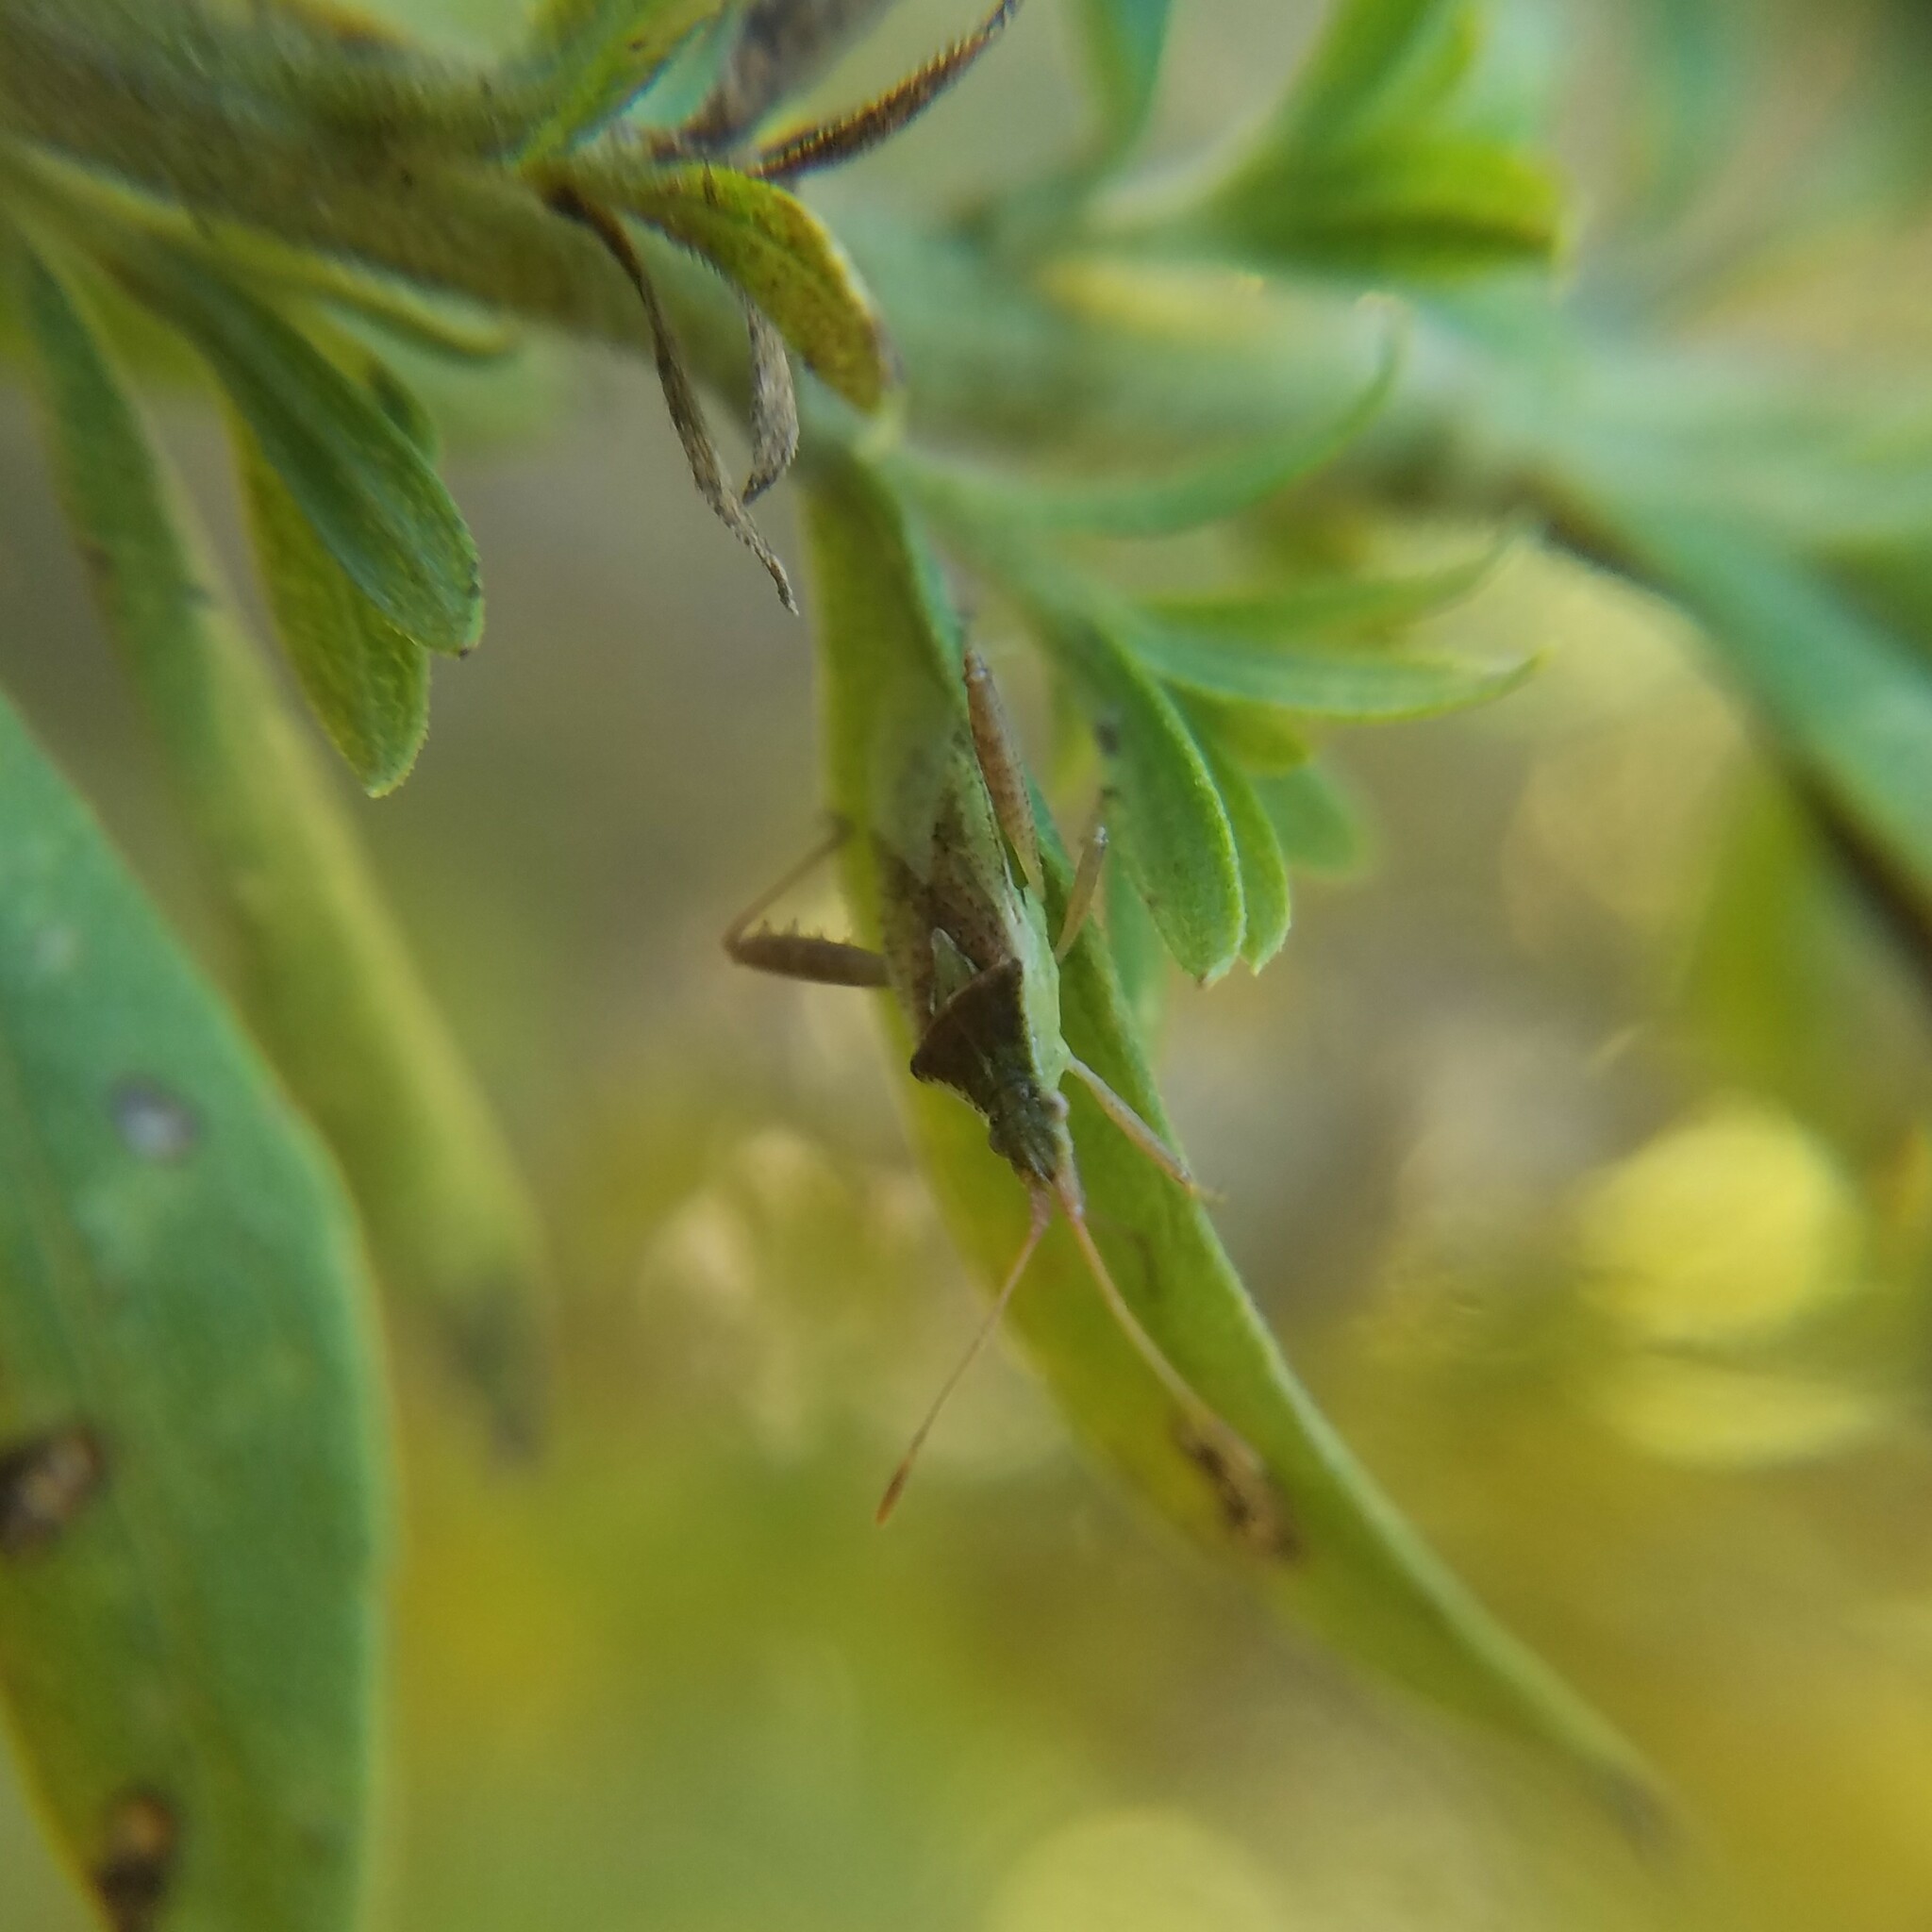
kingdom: Animalia
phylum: Arthropoda
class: Insecta
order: Hemiptera
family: Rhopalidae
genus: Harmostes
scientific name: Harmostes reflexulus
